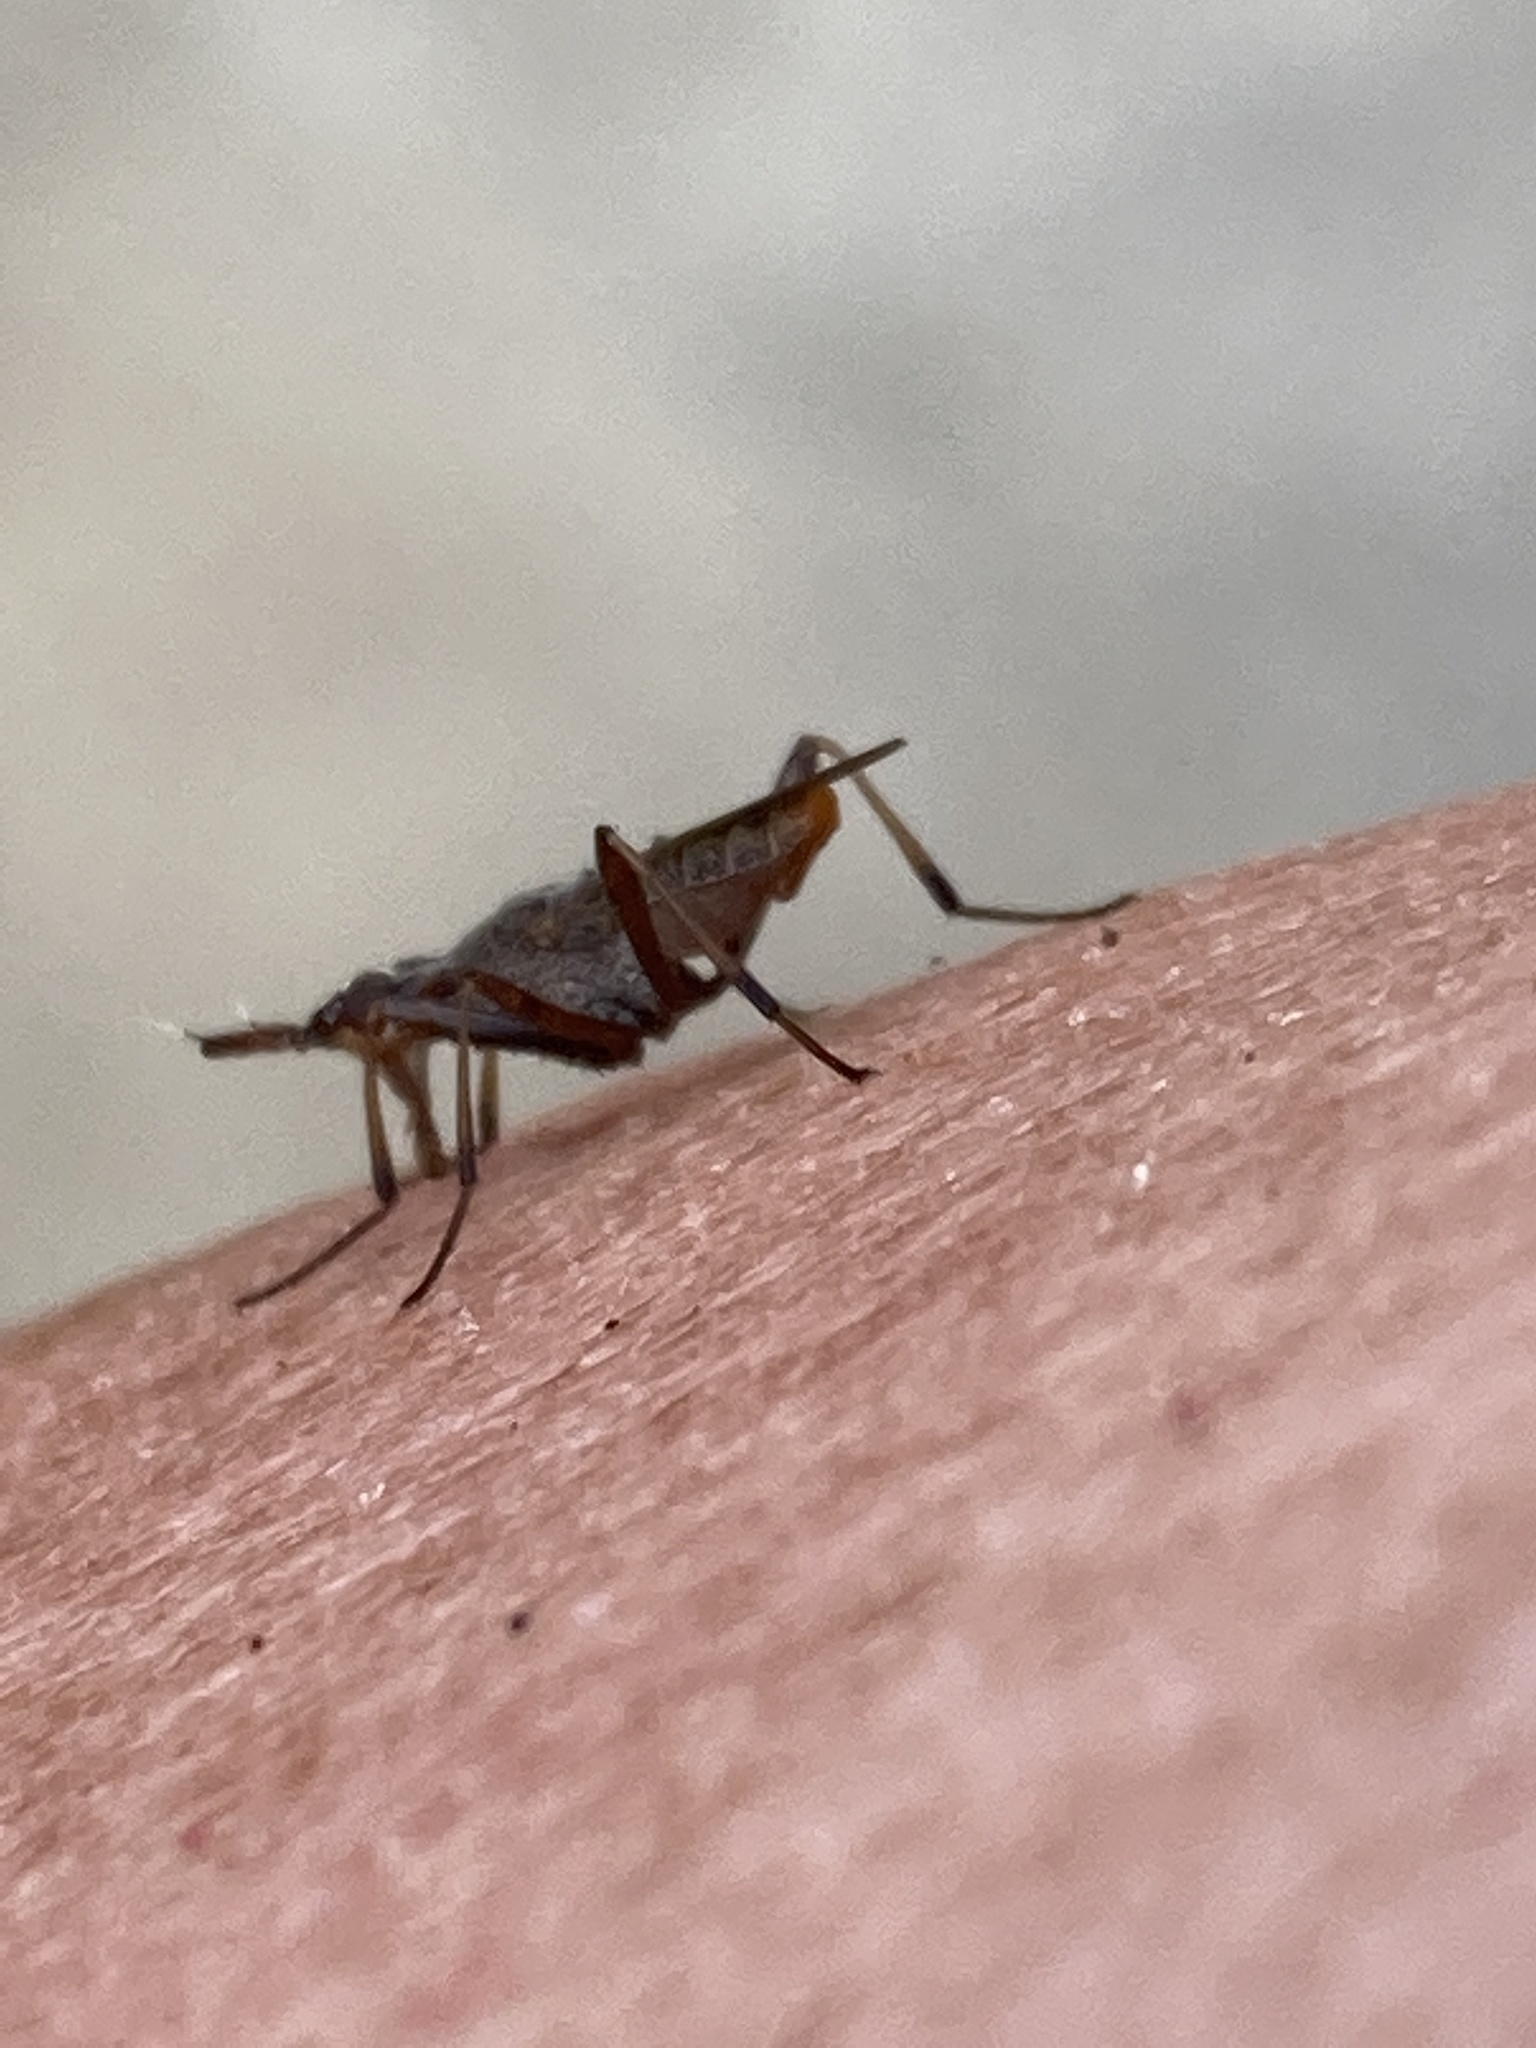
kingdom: Animalia
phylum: Arthropoda
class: Insecta
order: Diptera
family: Neriidae
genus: Odontoloxozus
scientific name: Odontoloxozus longicornis
